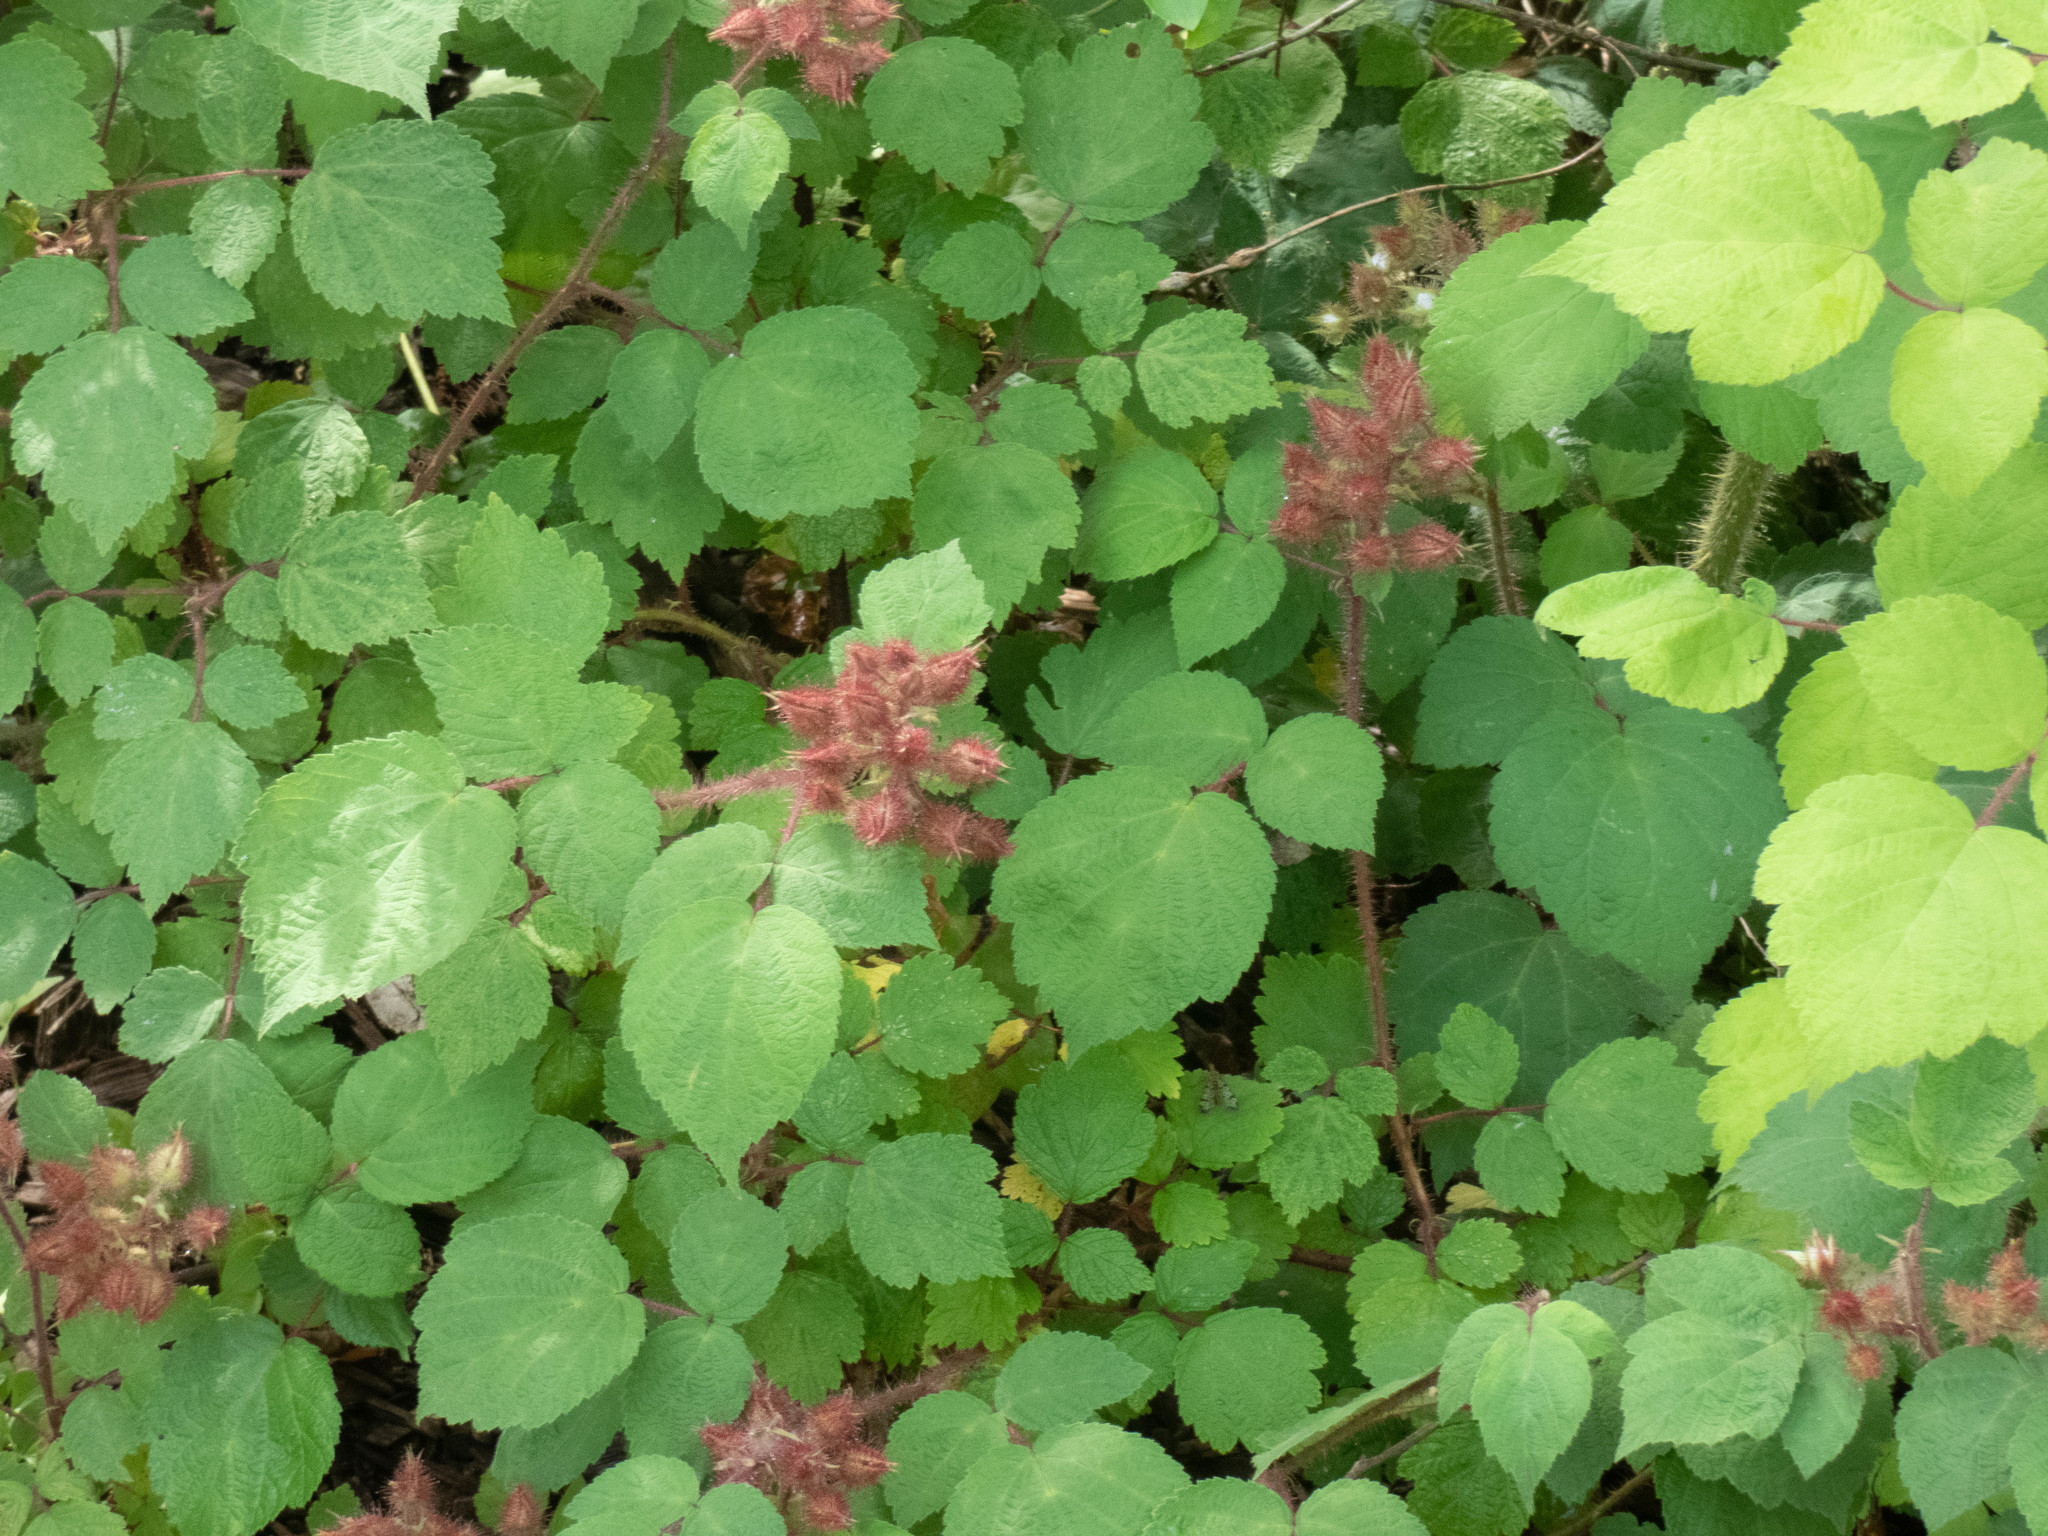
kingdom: Plantae
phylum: Tracheophyta
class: Magnoliopsida
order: Rosales
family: Rosaceae
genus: Rubus
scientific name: Rubus phoenicolasius
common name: Japanese wineberry
